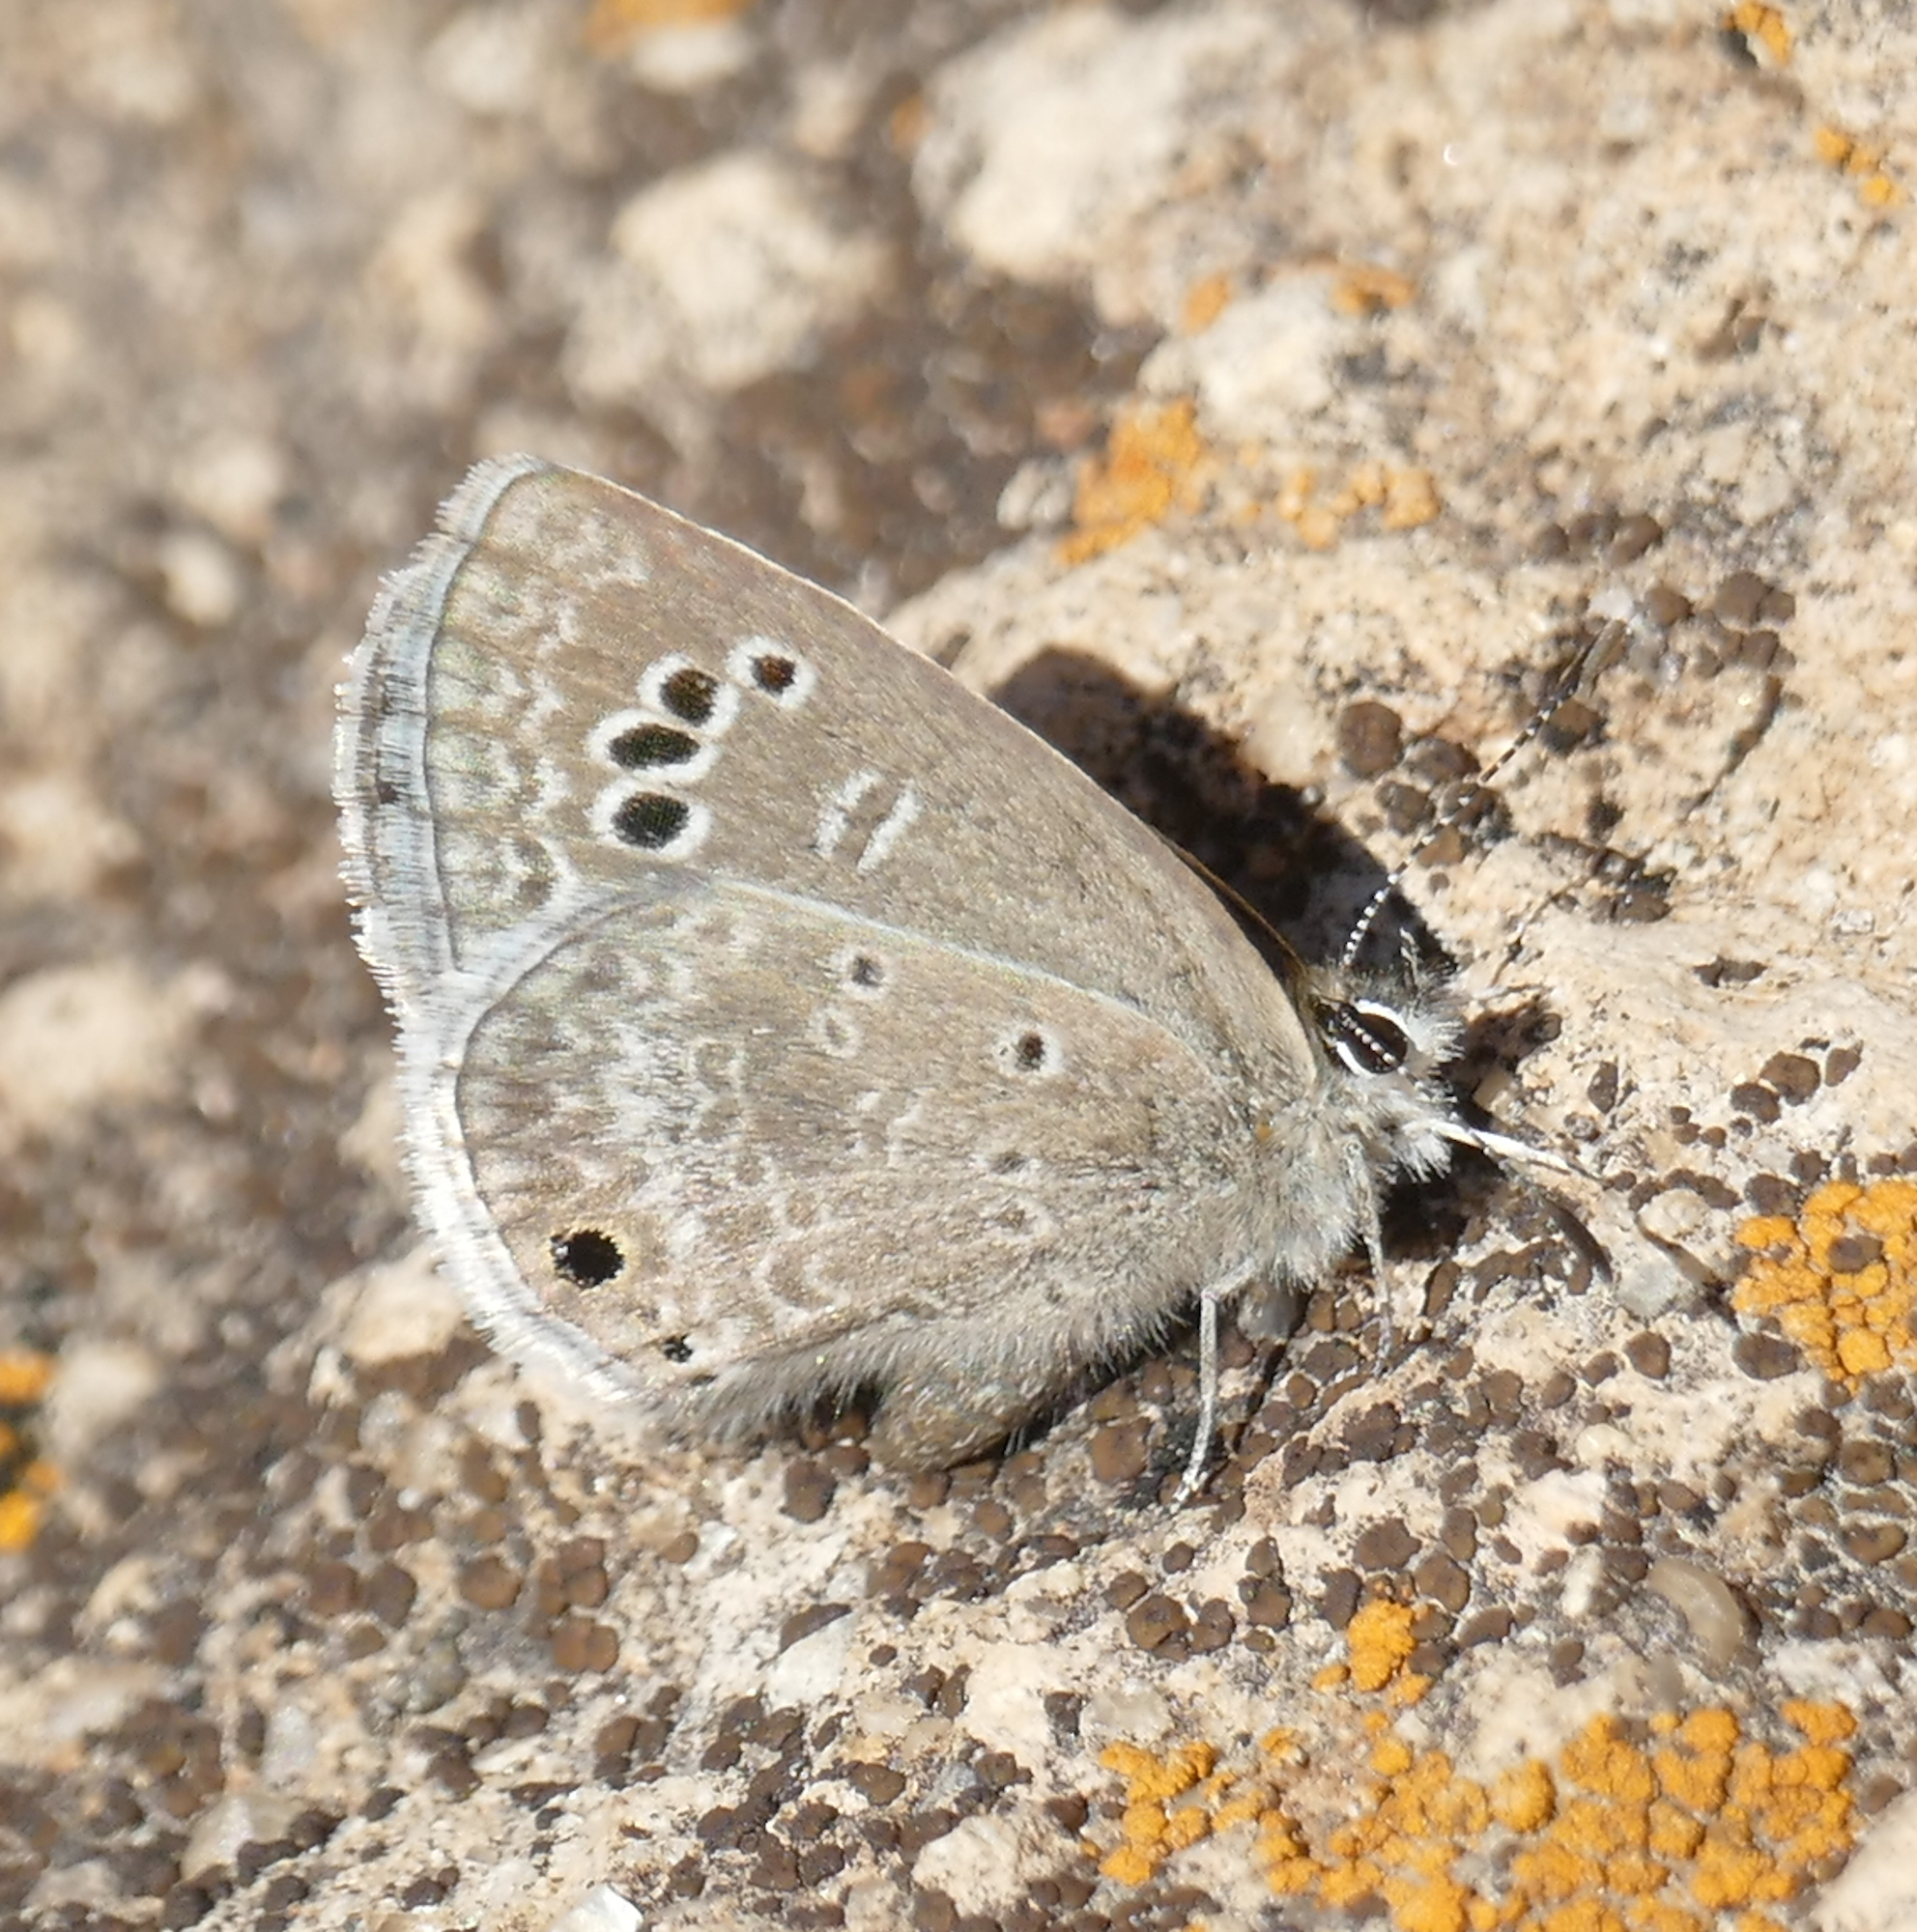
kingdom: Animalia
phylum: Arthropoda
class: Insecta
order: Lepidoptera
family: Lycaenidae
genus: Echinargus
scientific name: Echinargus isola
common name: Reakirt's blue
